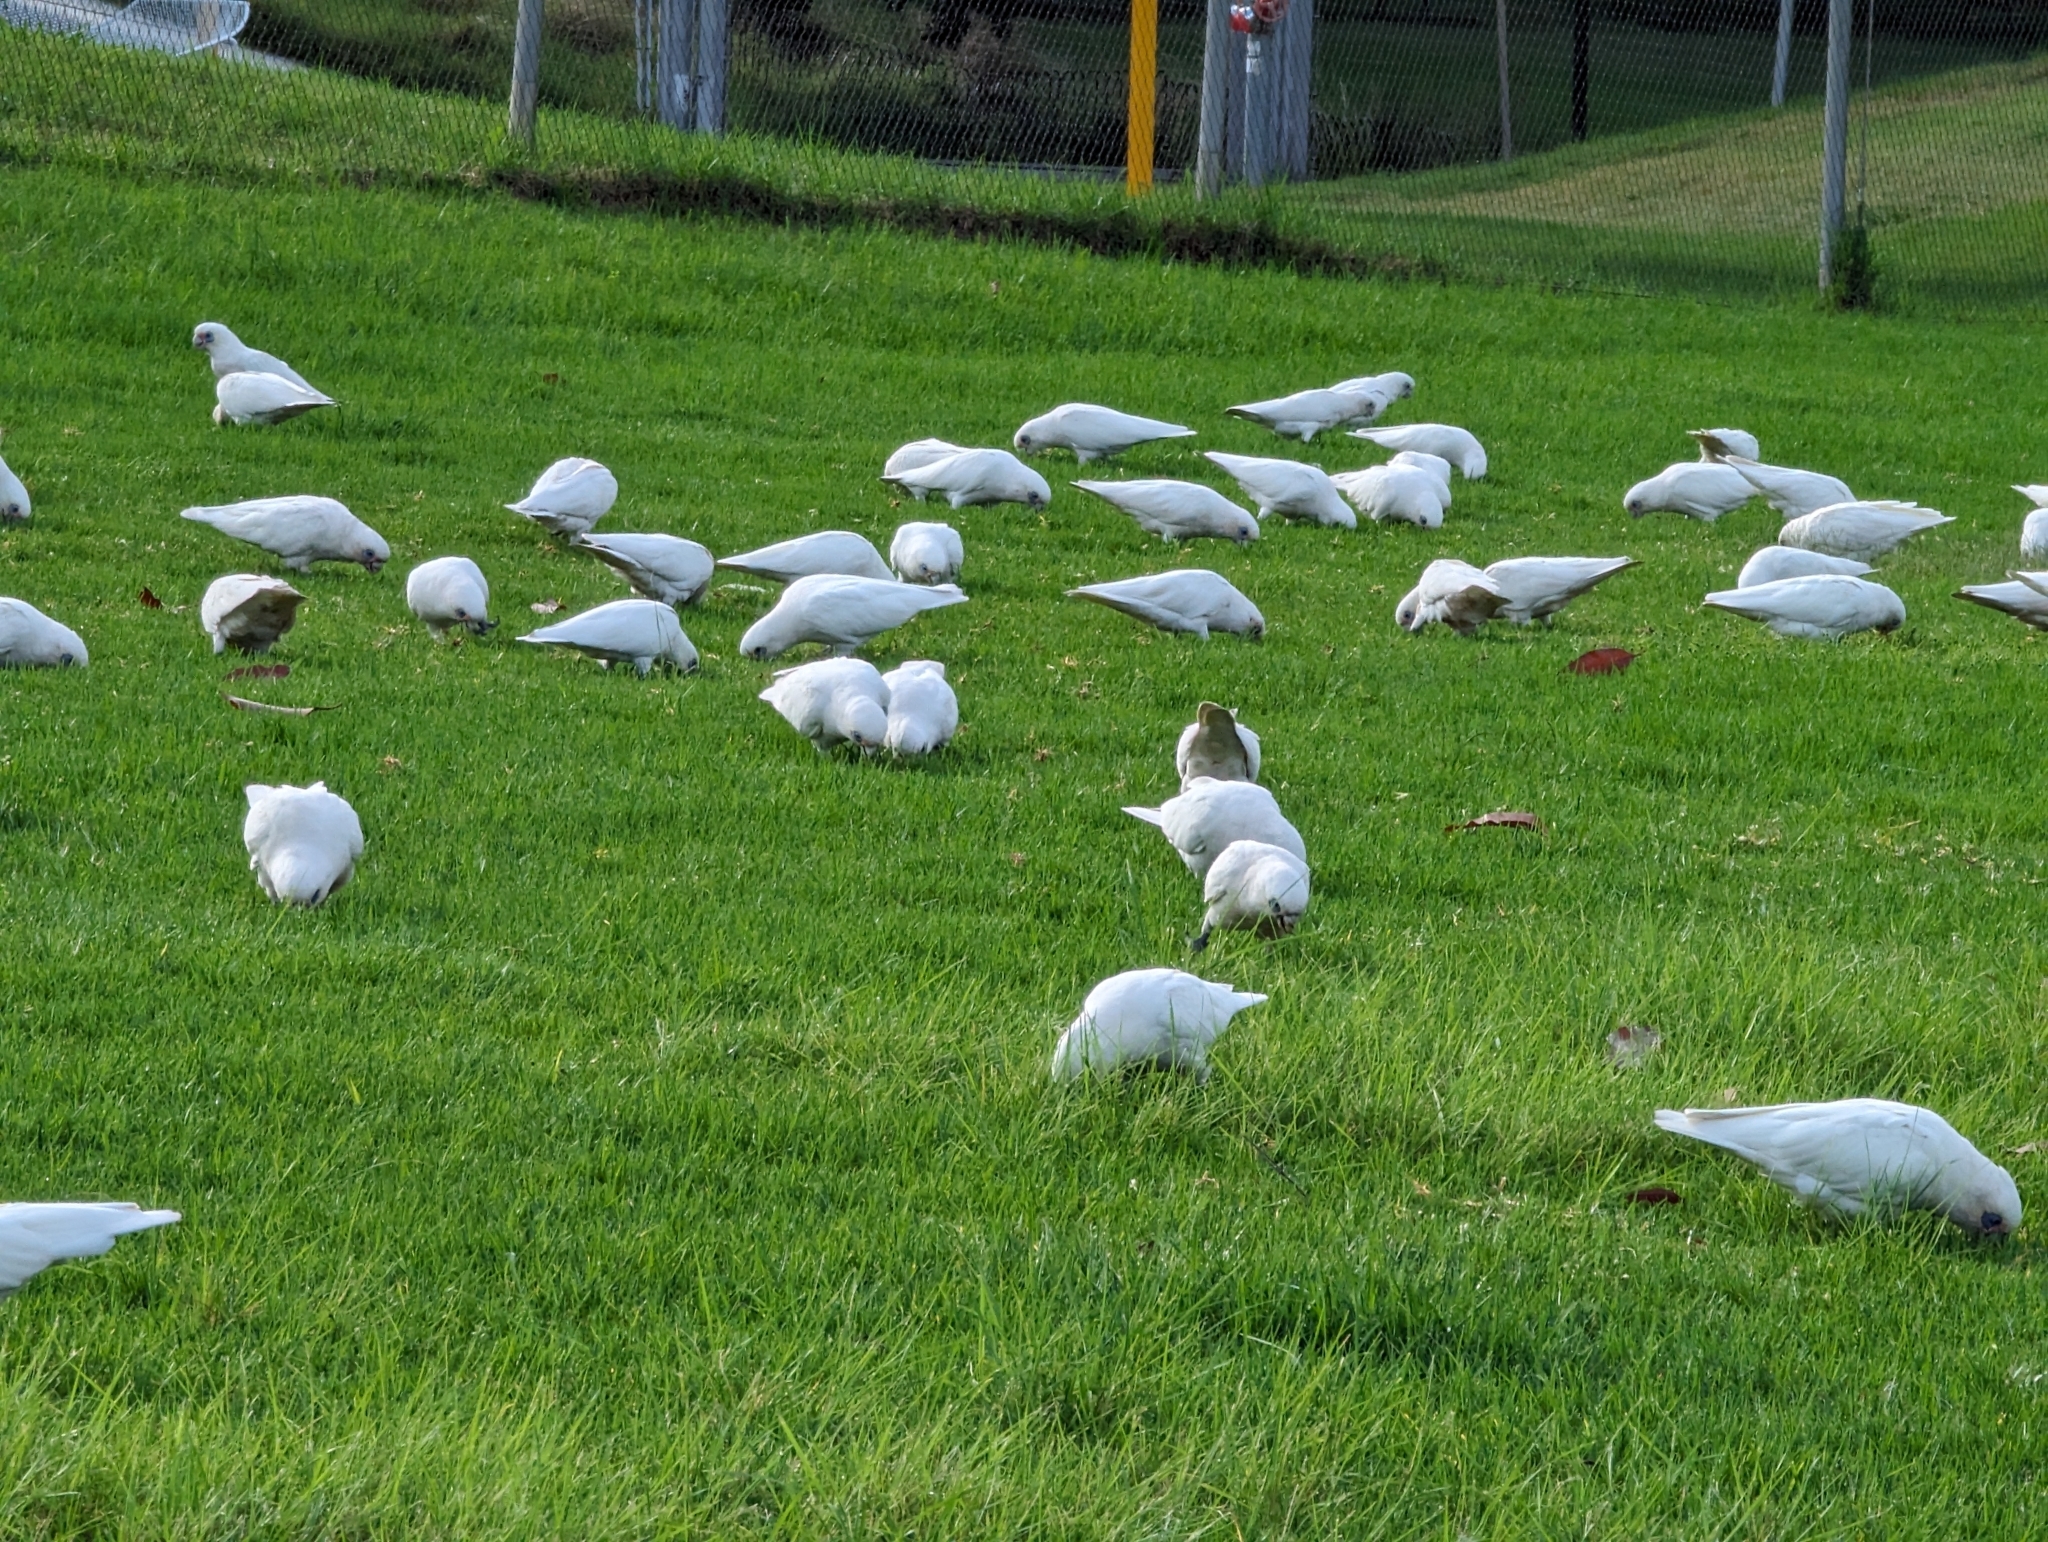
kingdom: Animalia
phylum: Chordata
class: Aves
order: Psittaciformes
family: Psittacidae
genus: Cacatua
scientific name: Cacatua sanguinea
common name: Little corella
